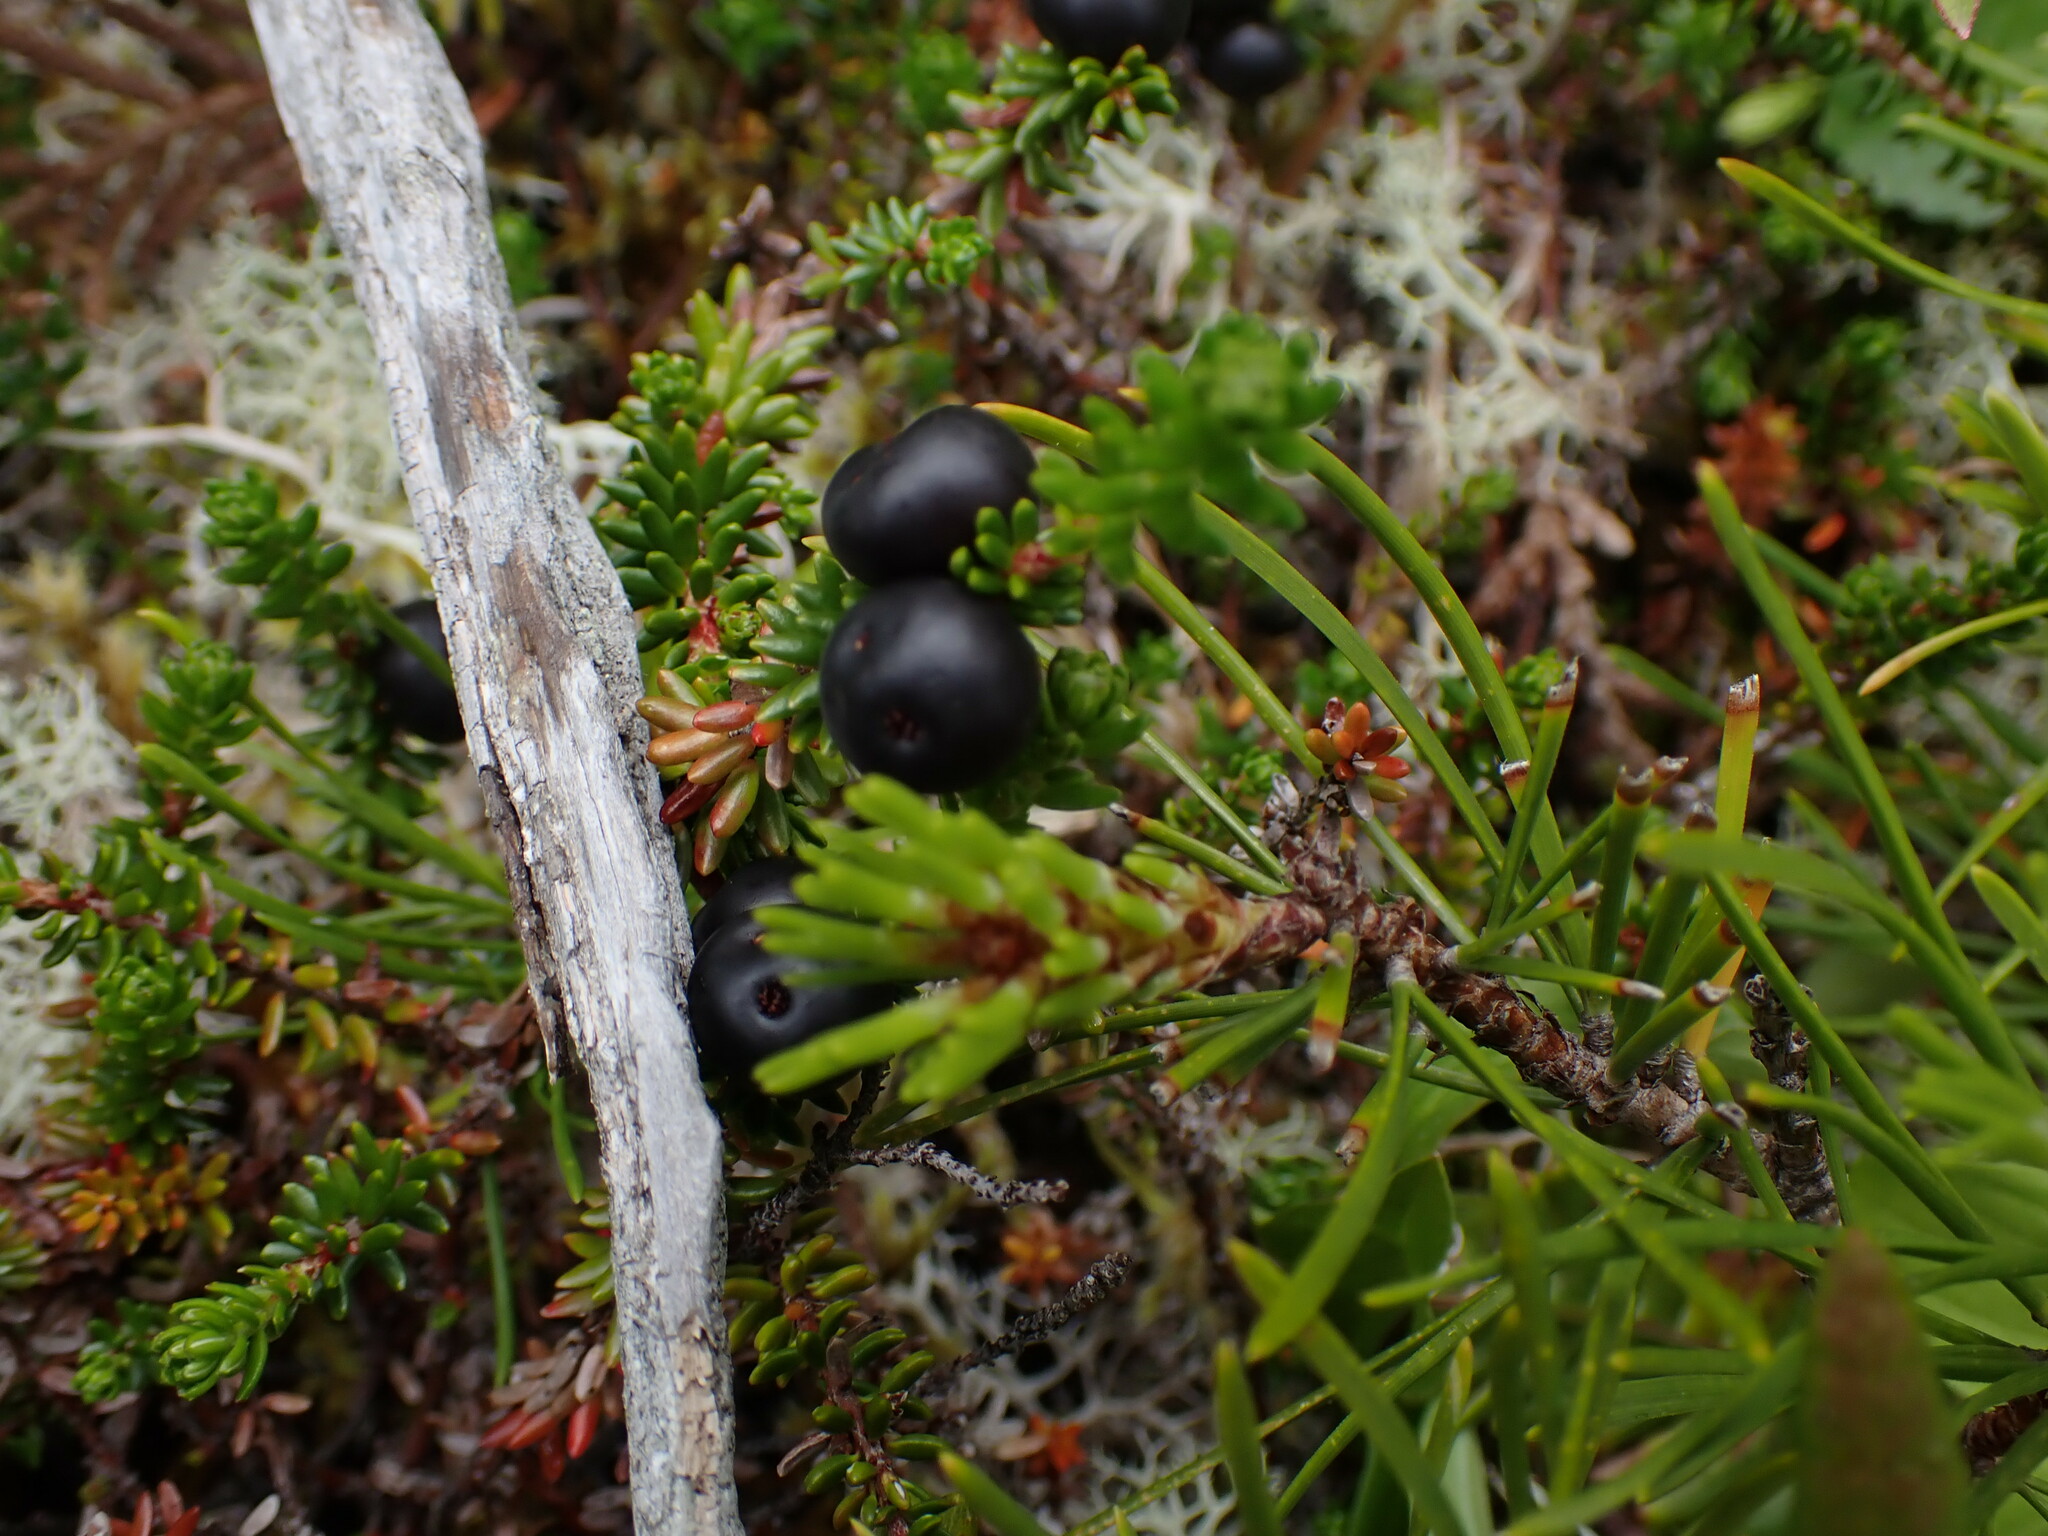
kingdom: Plantae
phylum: Tracheophyta
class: Magnoliopsida
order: Ericales
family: Ericaceae
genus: Empetrum
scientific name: Empetrum nigrum
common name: Black crowberry
